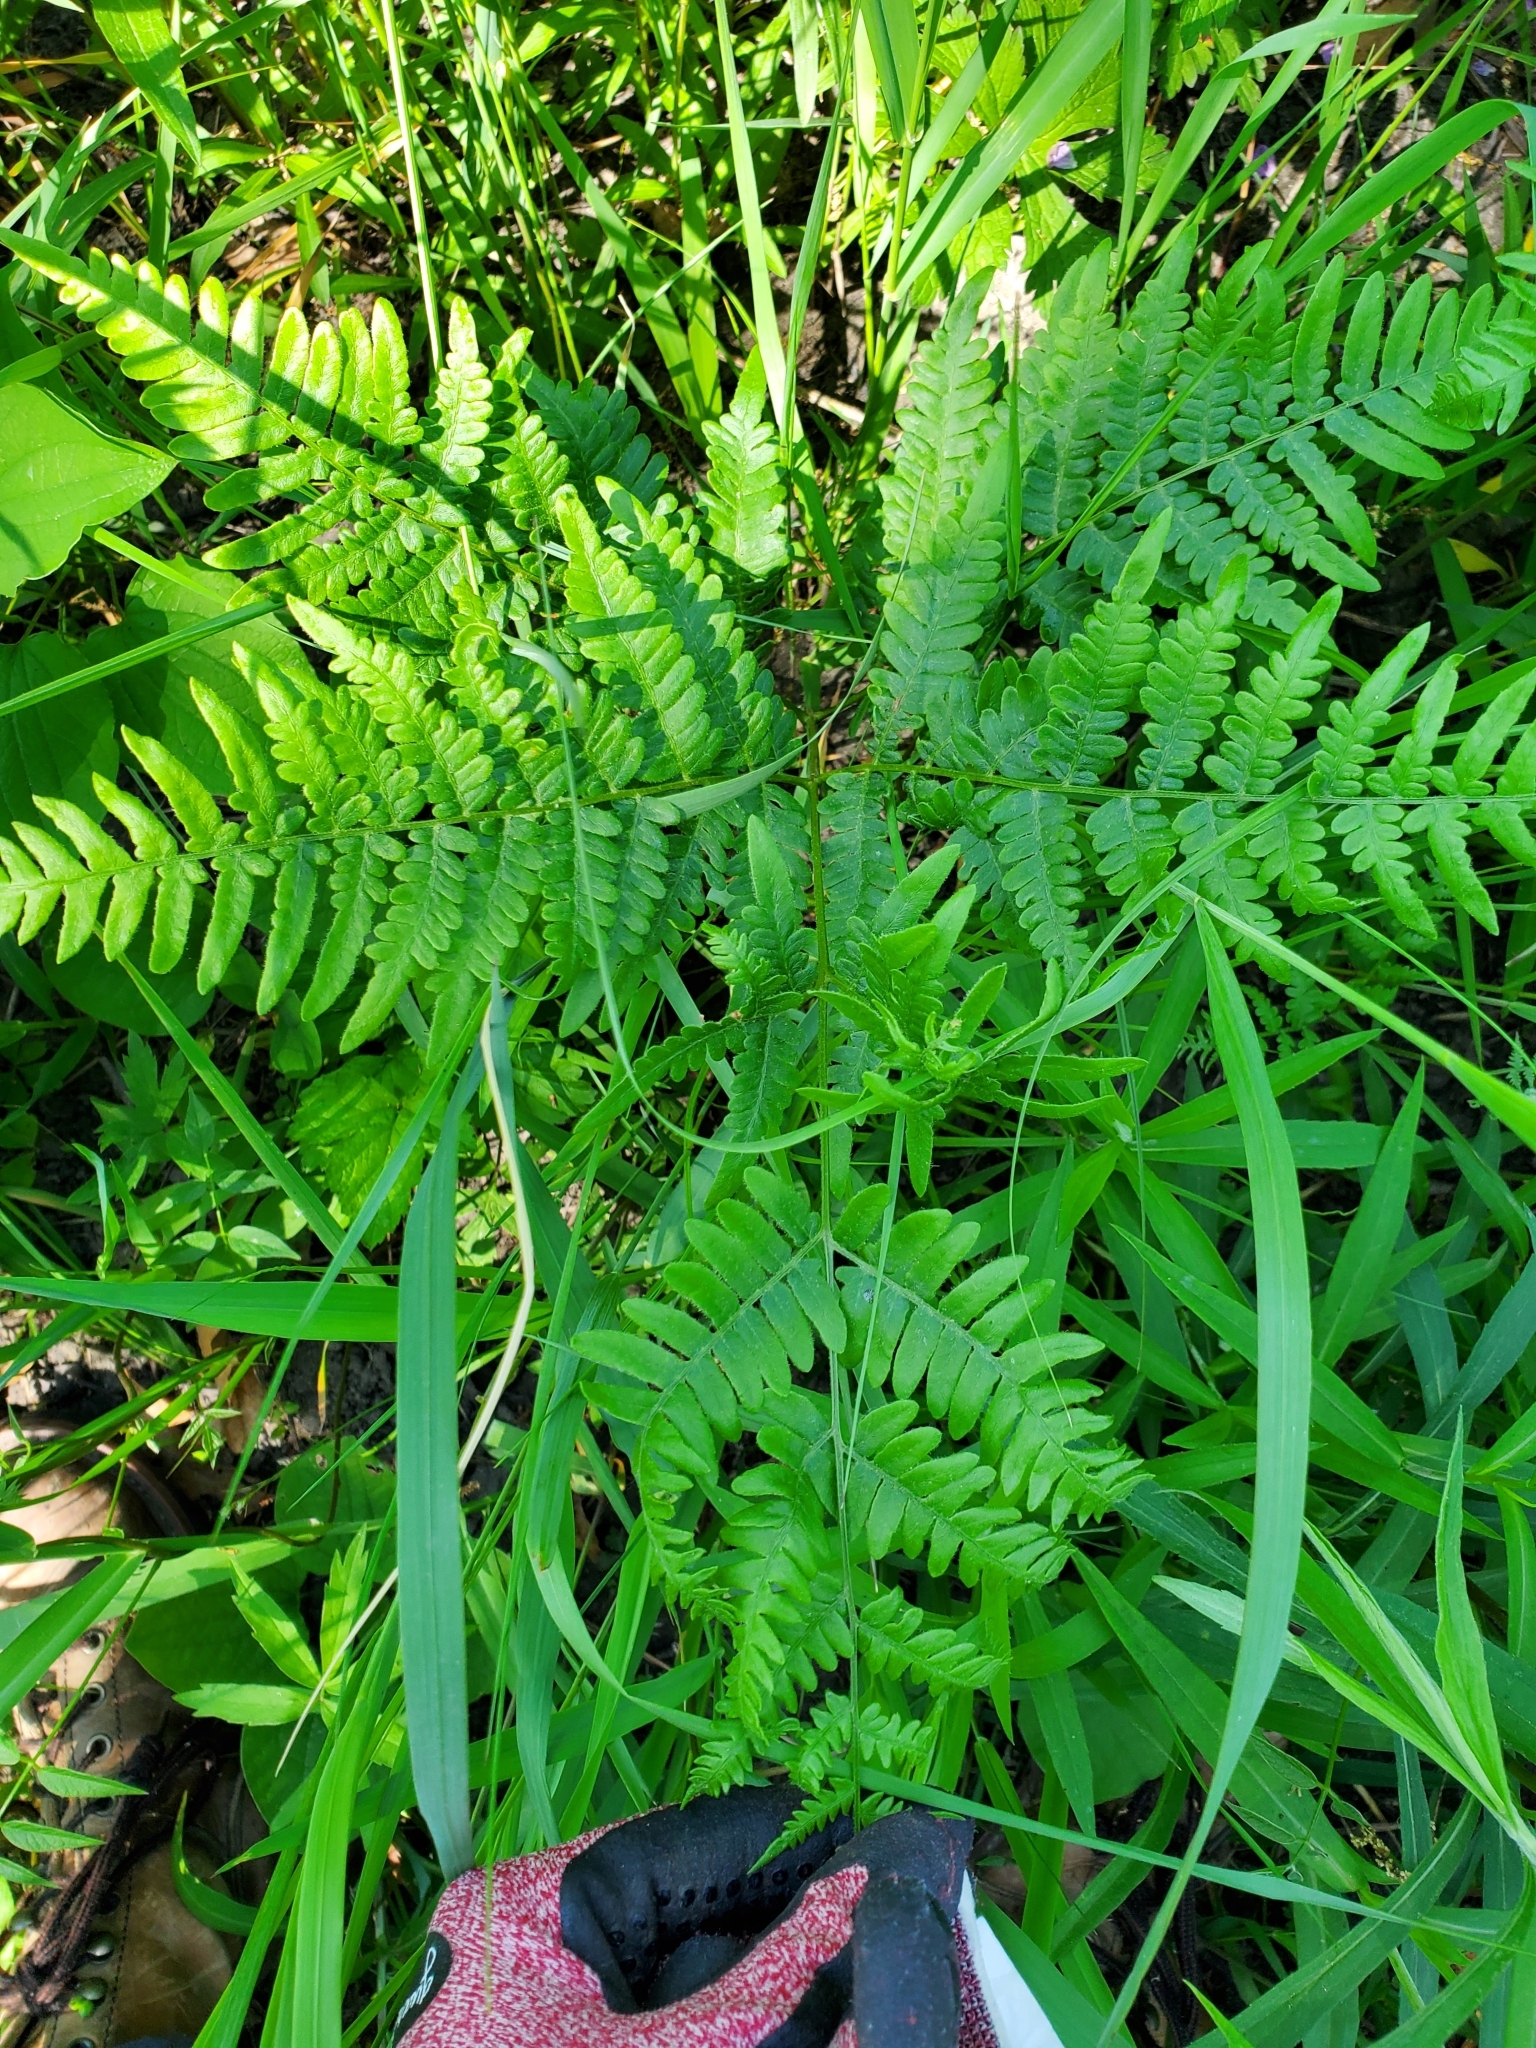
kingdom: Plantae
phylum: Tracheophyta
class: Polypodiopsida
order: Polypodiales
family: Dennstaedtiaceae
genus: Pteridium
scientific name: Pteridium aquilinum
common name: Bracken
